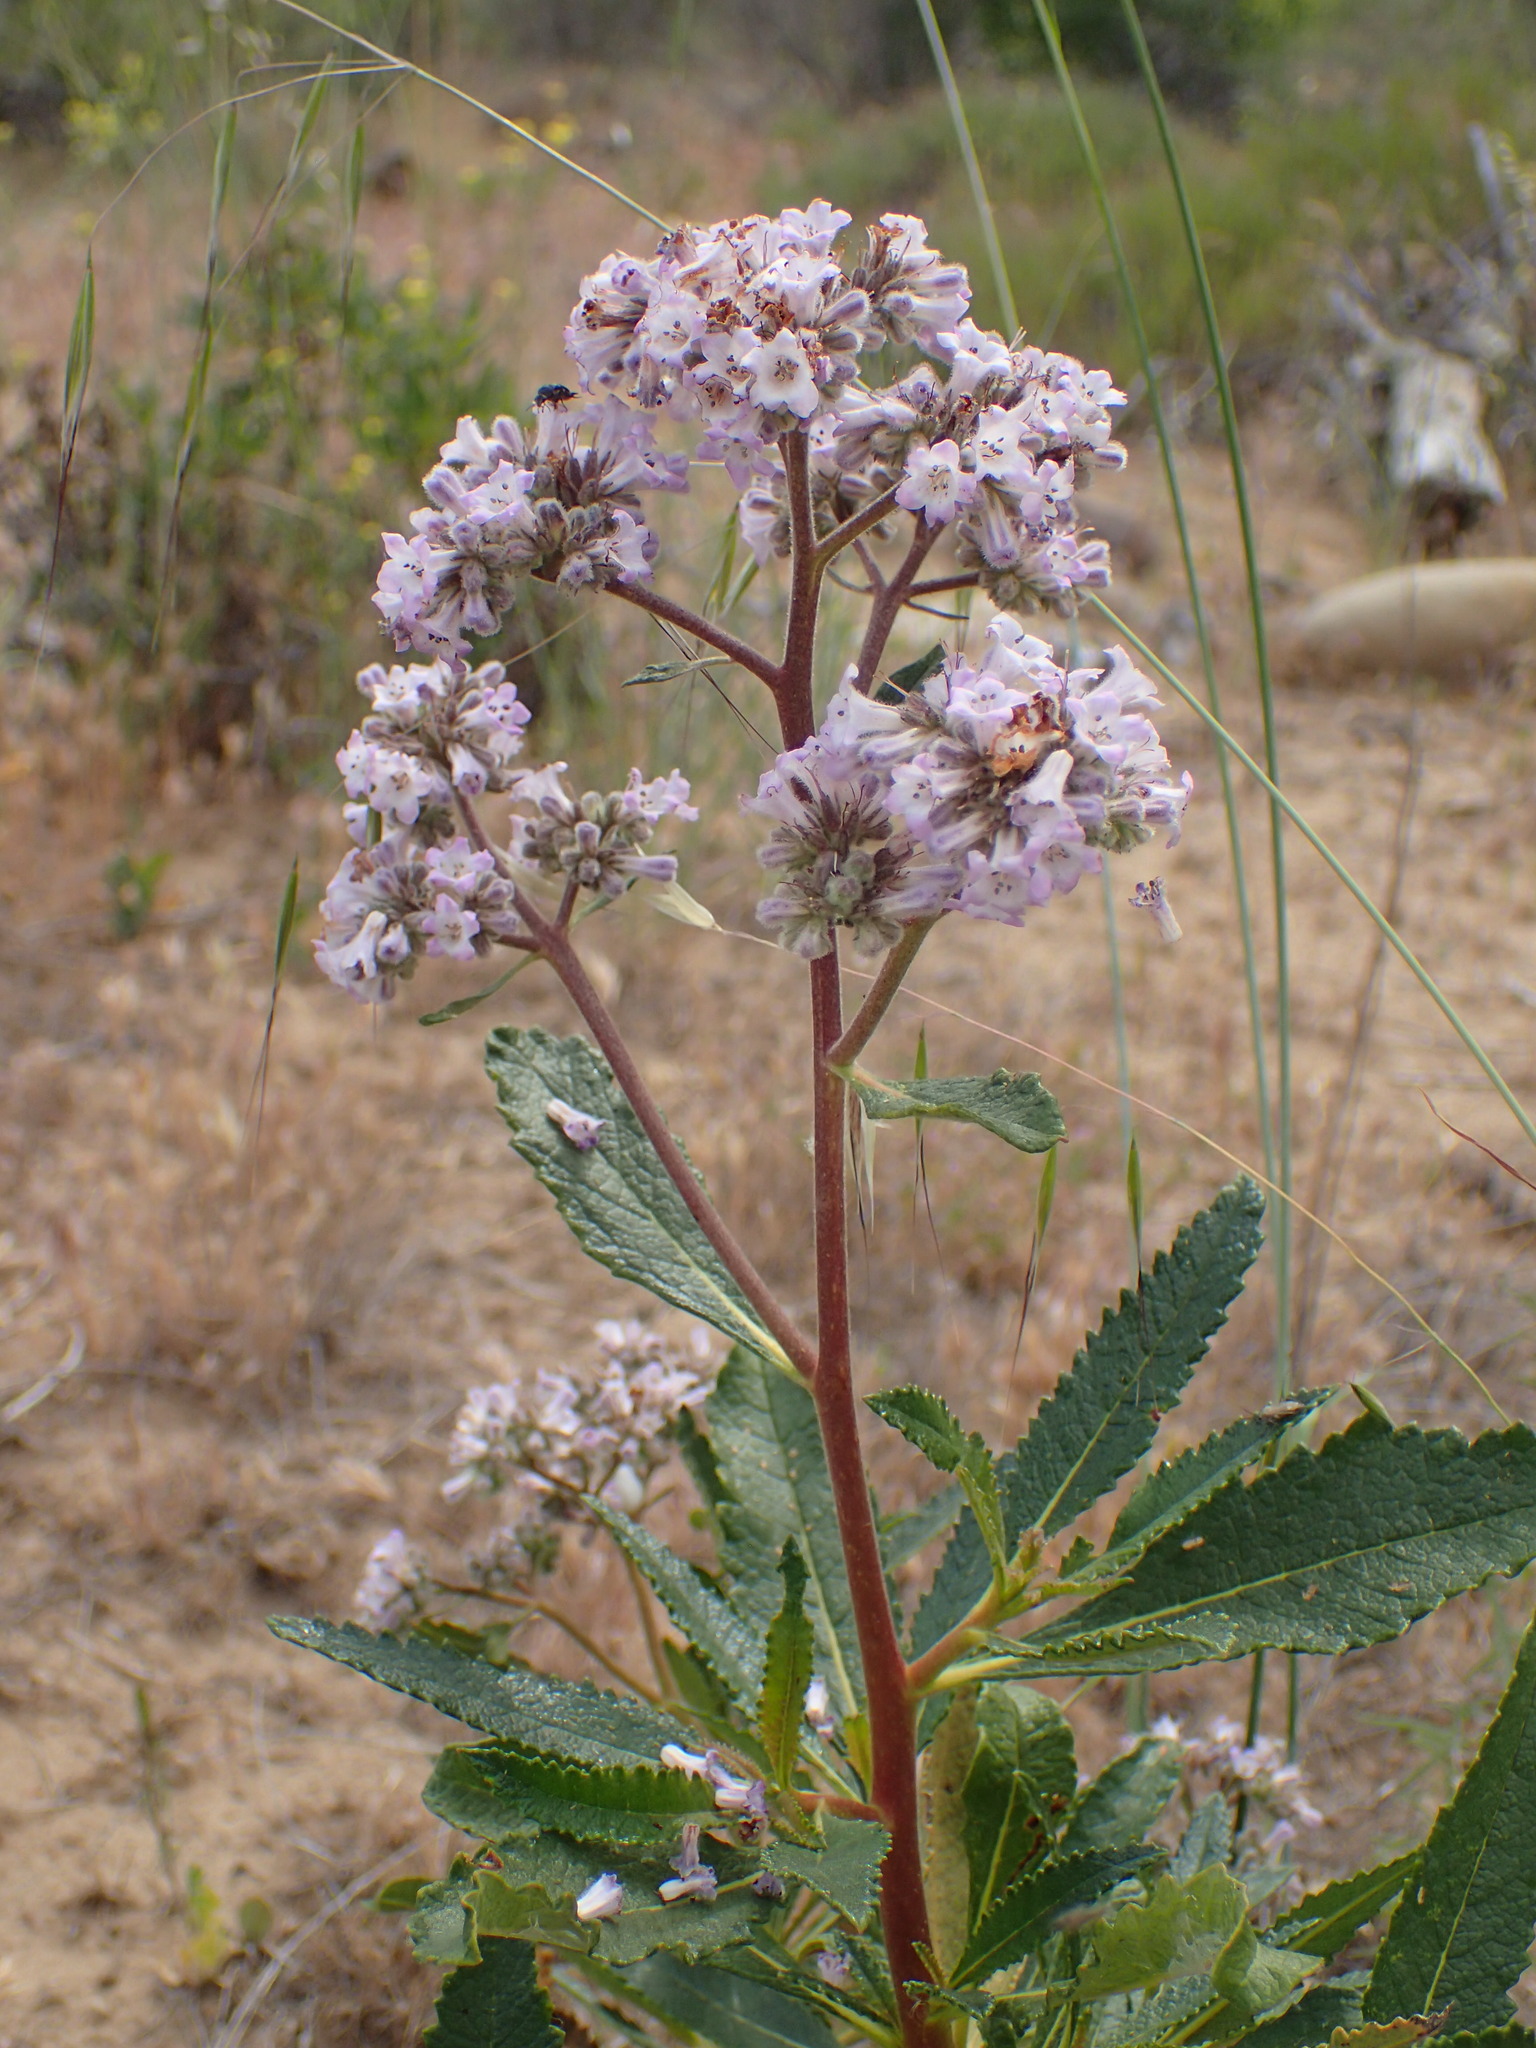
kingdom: Plantae
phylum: Tracheophyta
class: Magnoliopsida
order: Boraginales
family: Namaceae
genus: Eriodictyon
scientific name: Eriodictyon crassifolium
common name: Thick-leaf yerba-santa
